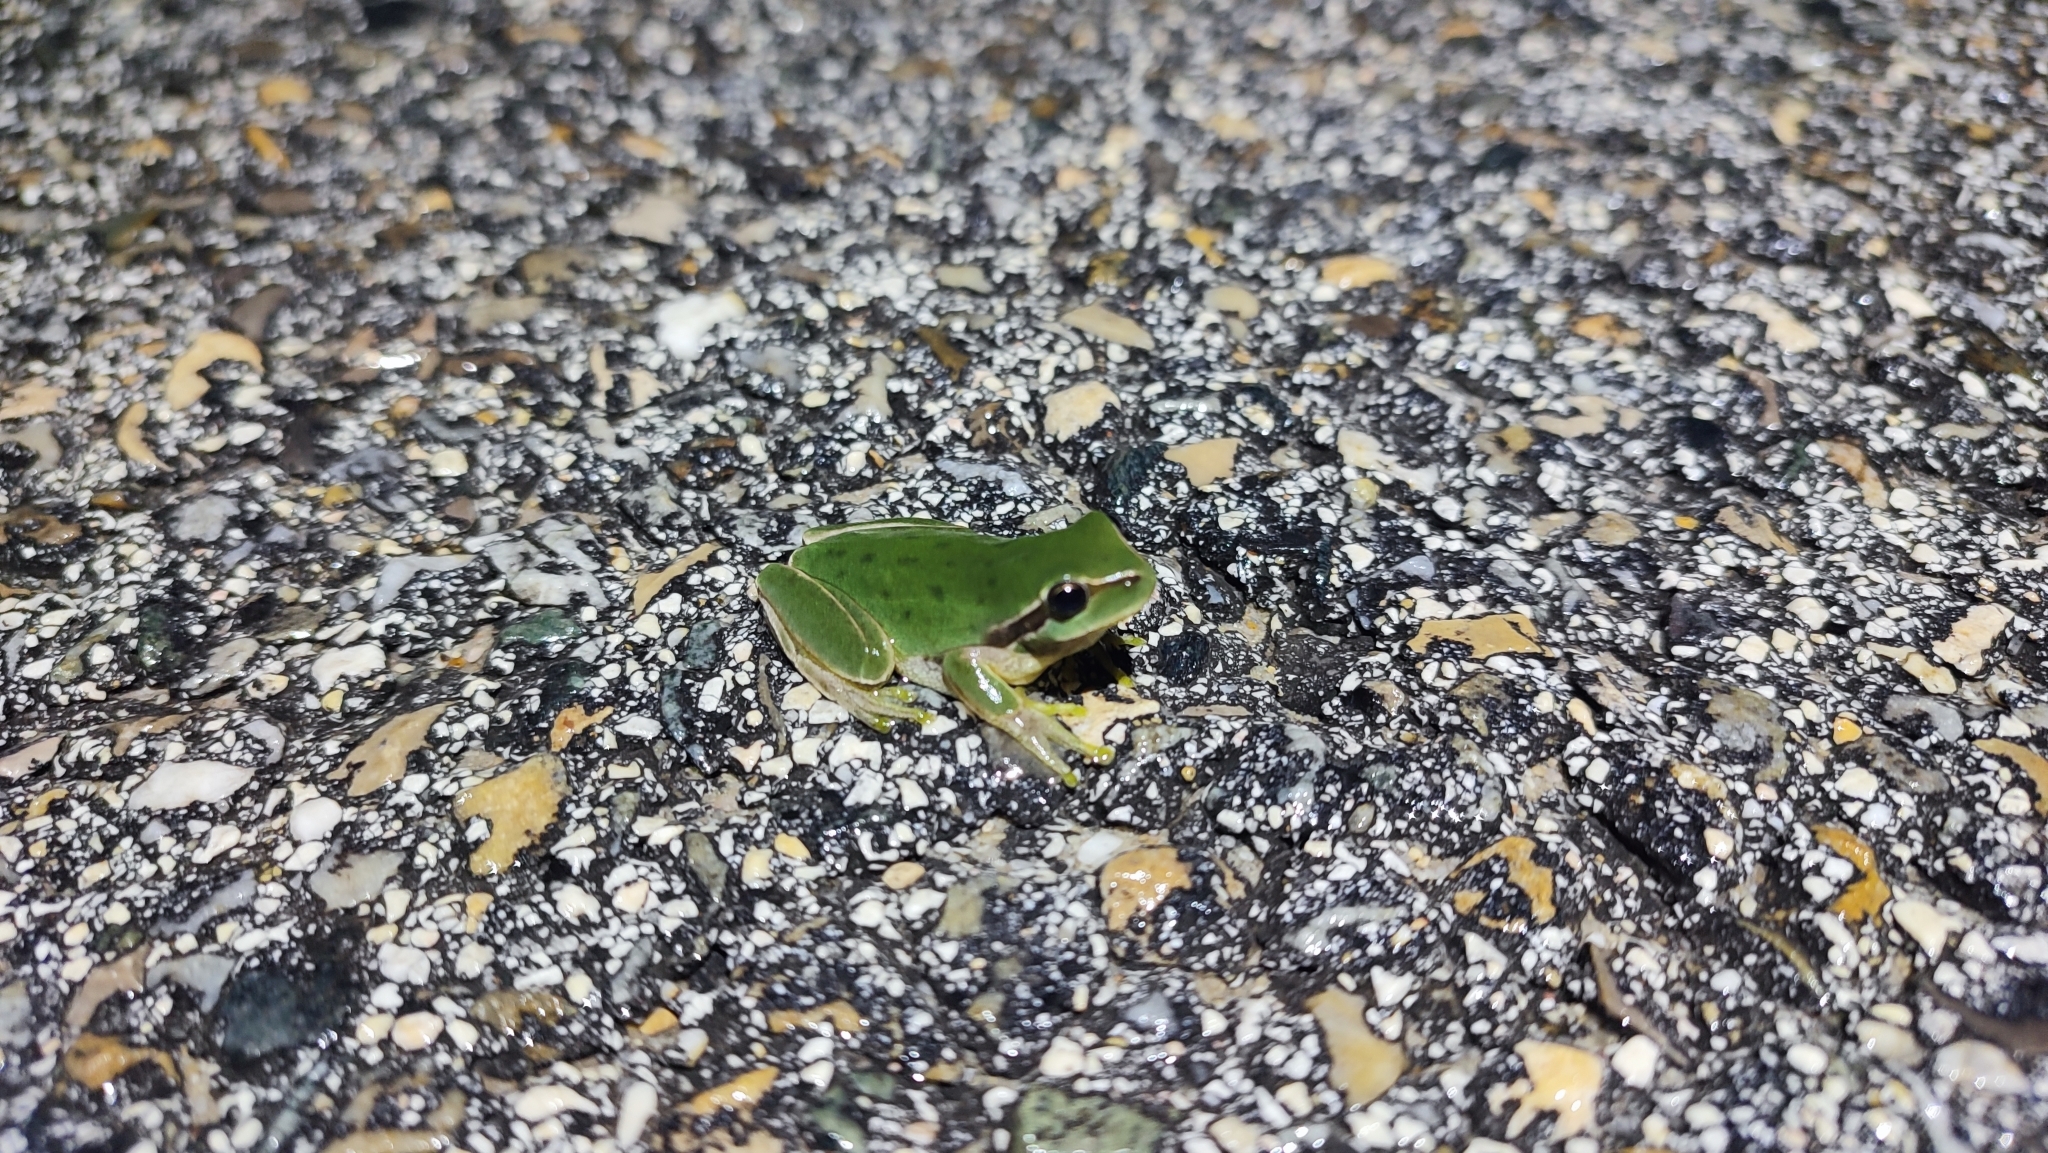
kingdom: Animalia
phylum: Chordata
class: Amphibia
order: Anura
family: Hylidae
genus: Hyla
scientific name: Hyla meridionalis
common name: Stripeless tree frog
